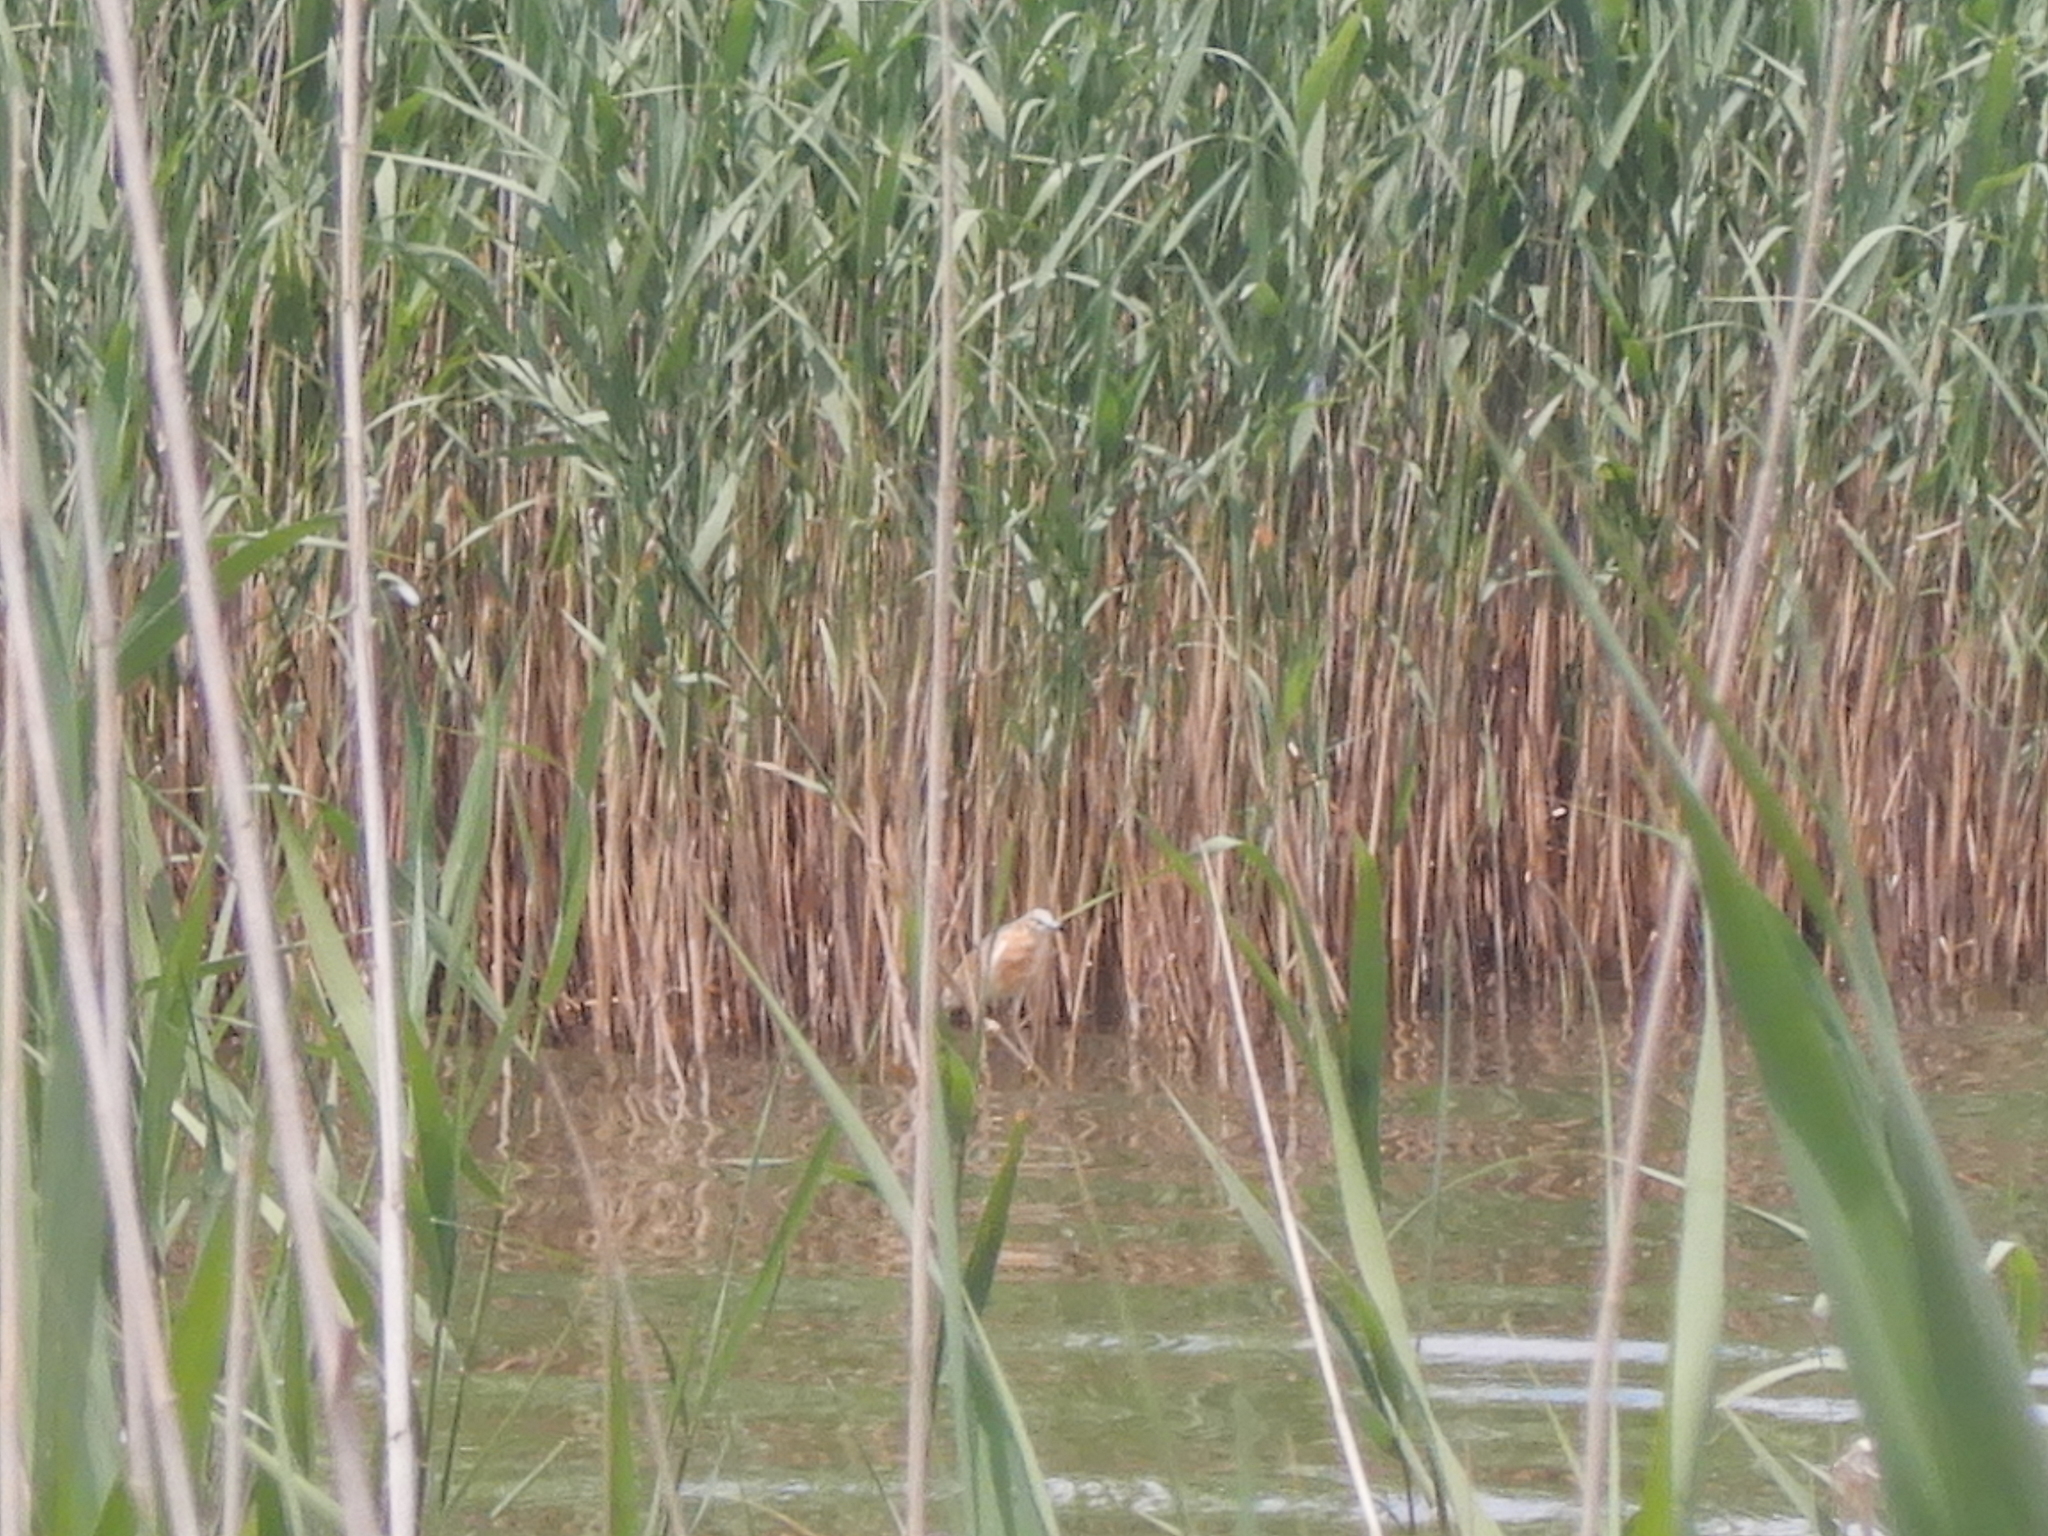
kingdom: Animalia
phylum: Chordata
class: Aves
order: Pelecaniformes
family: Ardeidae
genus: Ardeola
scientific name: Ardeola ralloides
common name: Squacco heron
